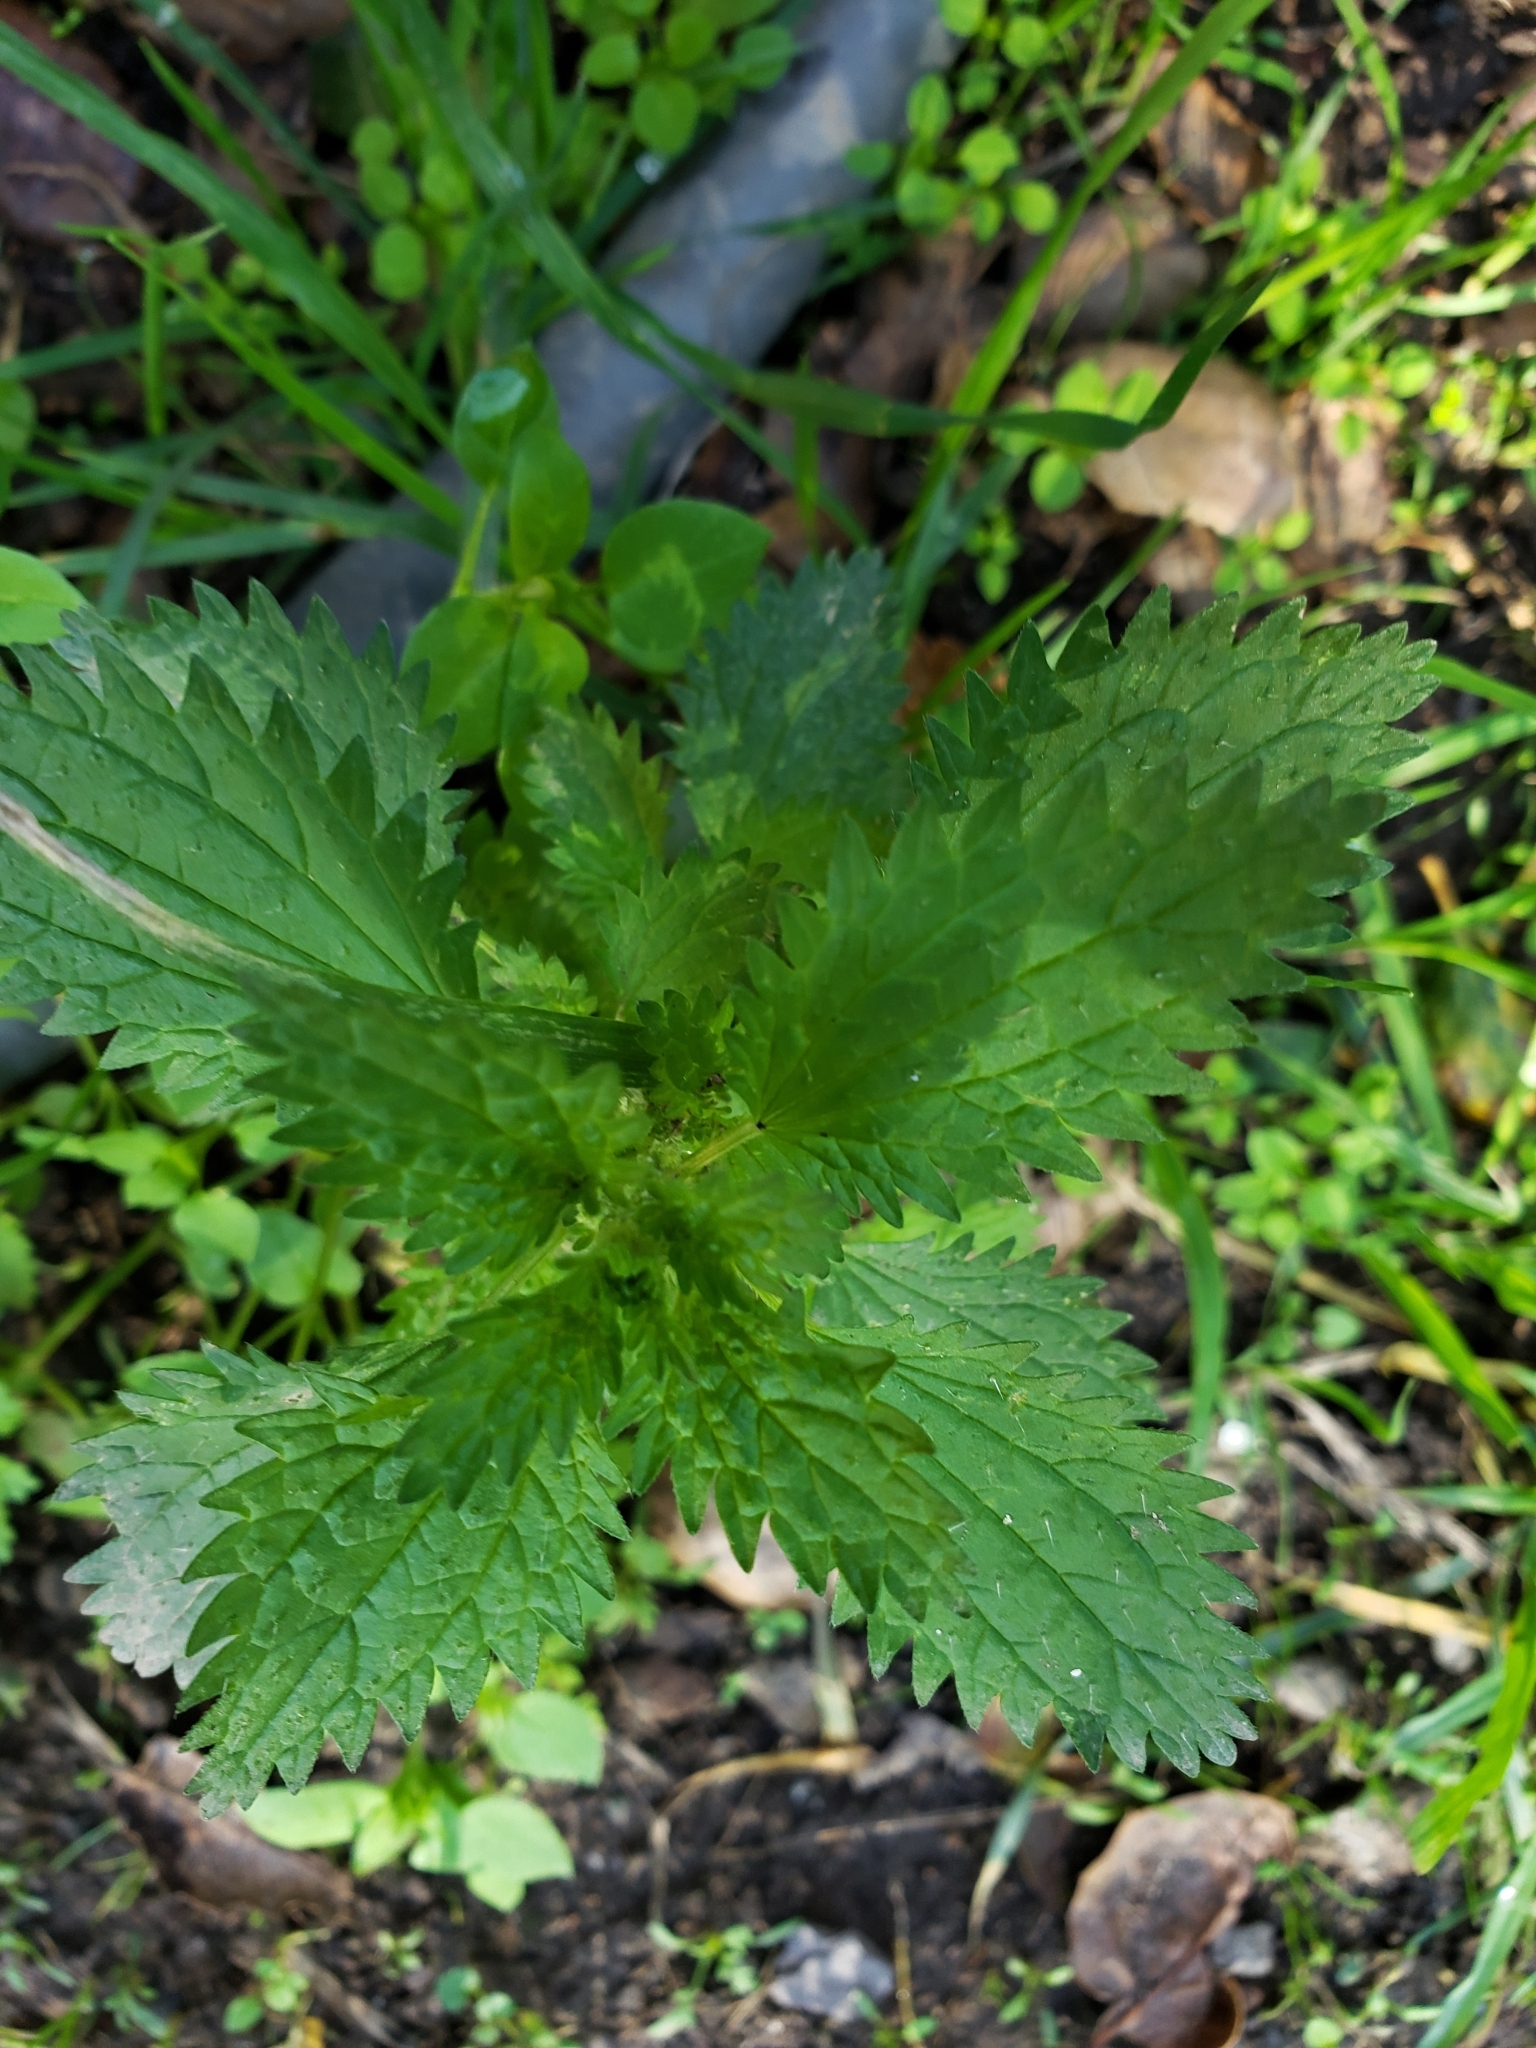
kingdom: Plantae
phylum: Tracheophyta
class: Magnoliopsida
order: Rosales
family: Urticaceae
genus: Urtica
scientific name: Urtica urens
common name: Dwarf nettle
